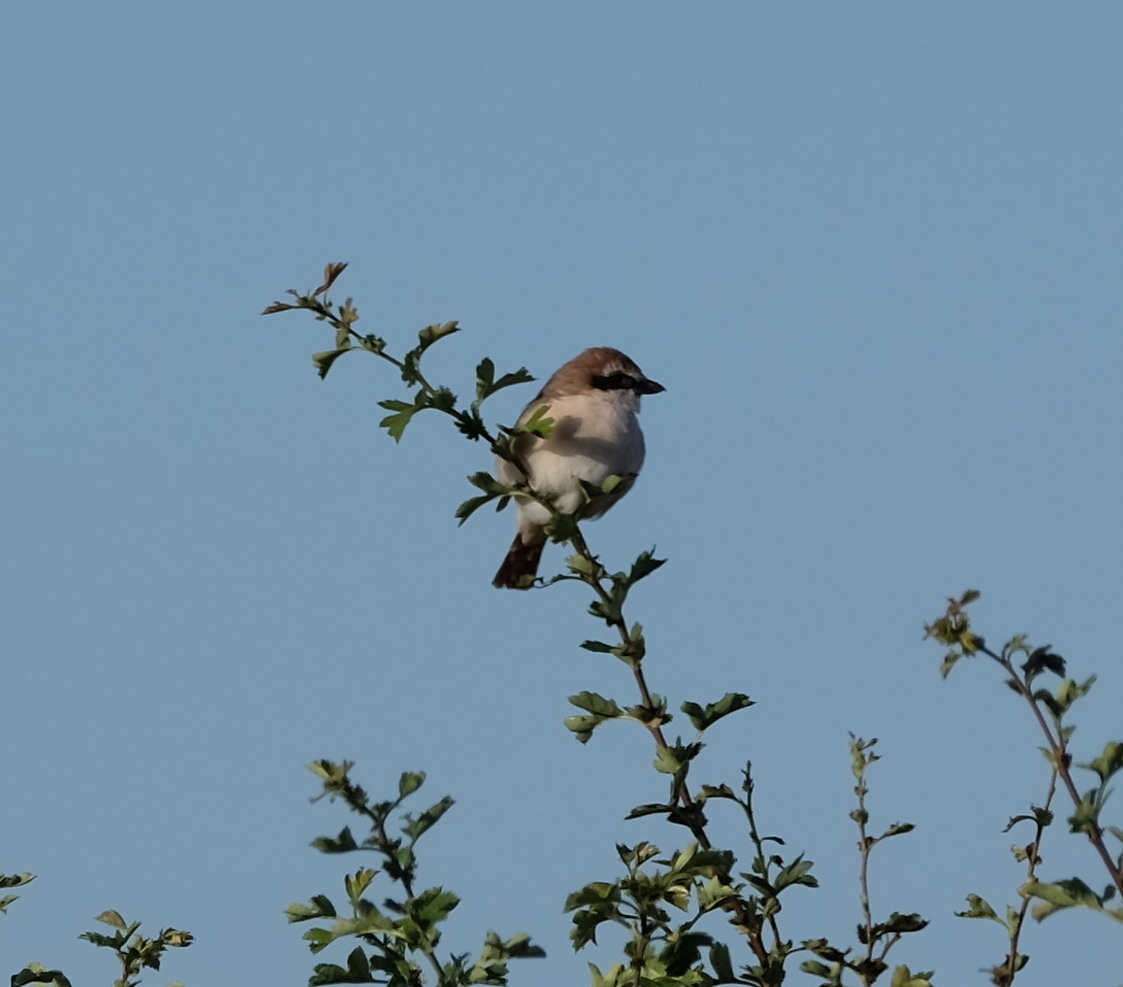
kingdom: Animalia
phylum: Chordata
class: Aves
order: Passeriformes
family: Laniidae
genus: Lanius
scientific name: Lanius phoenicuroides
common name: Red-tailed shrike
